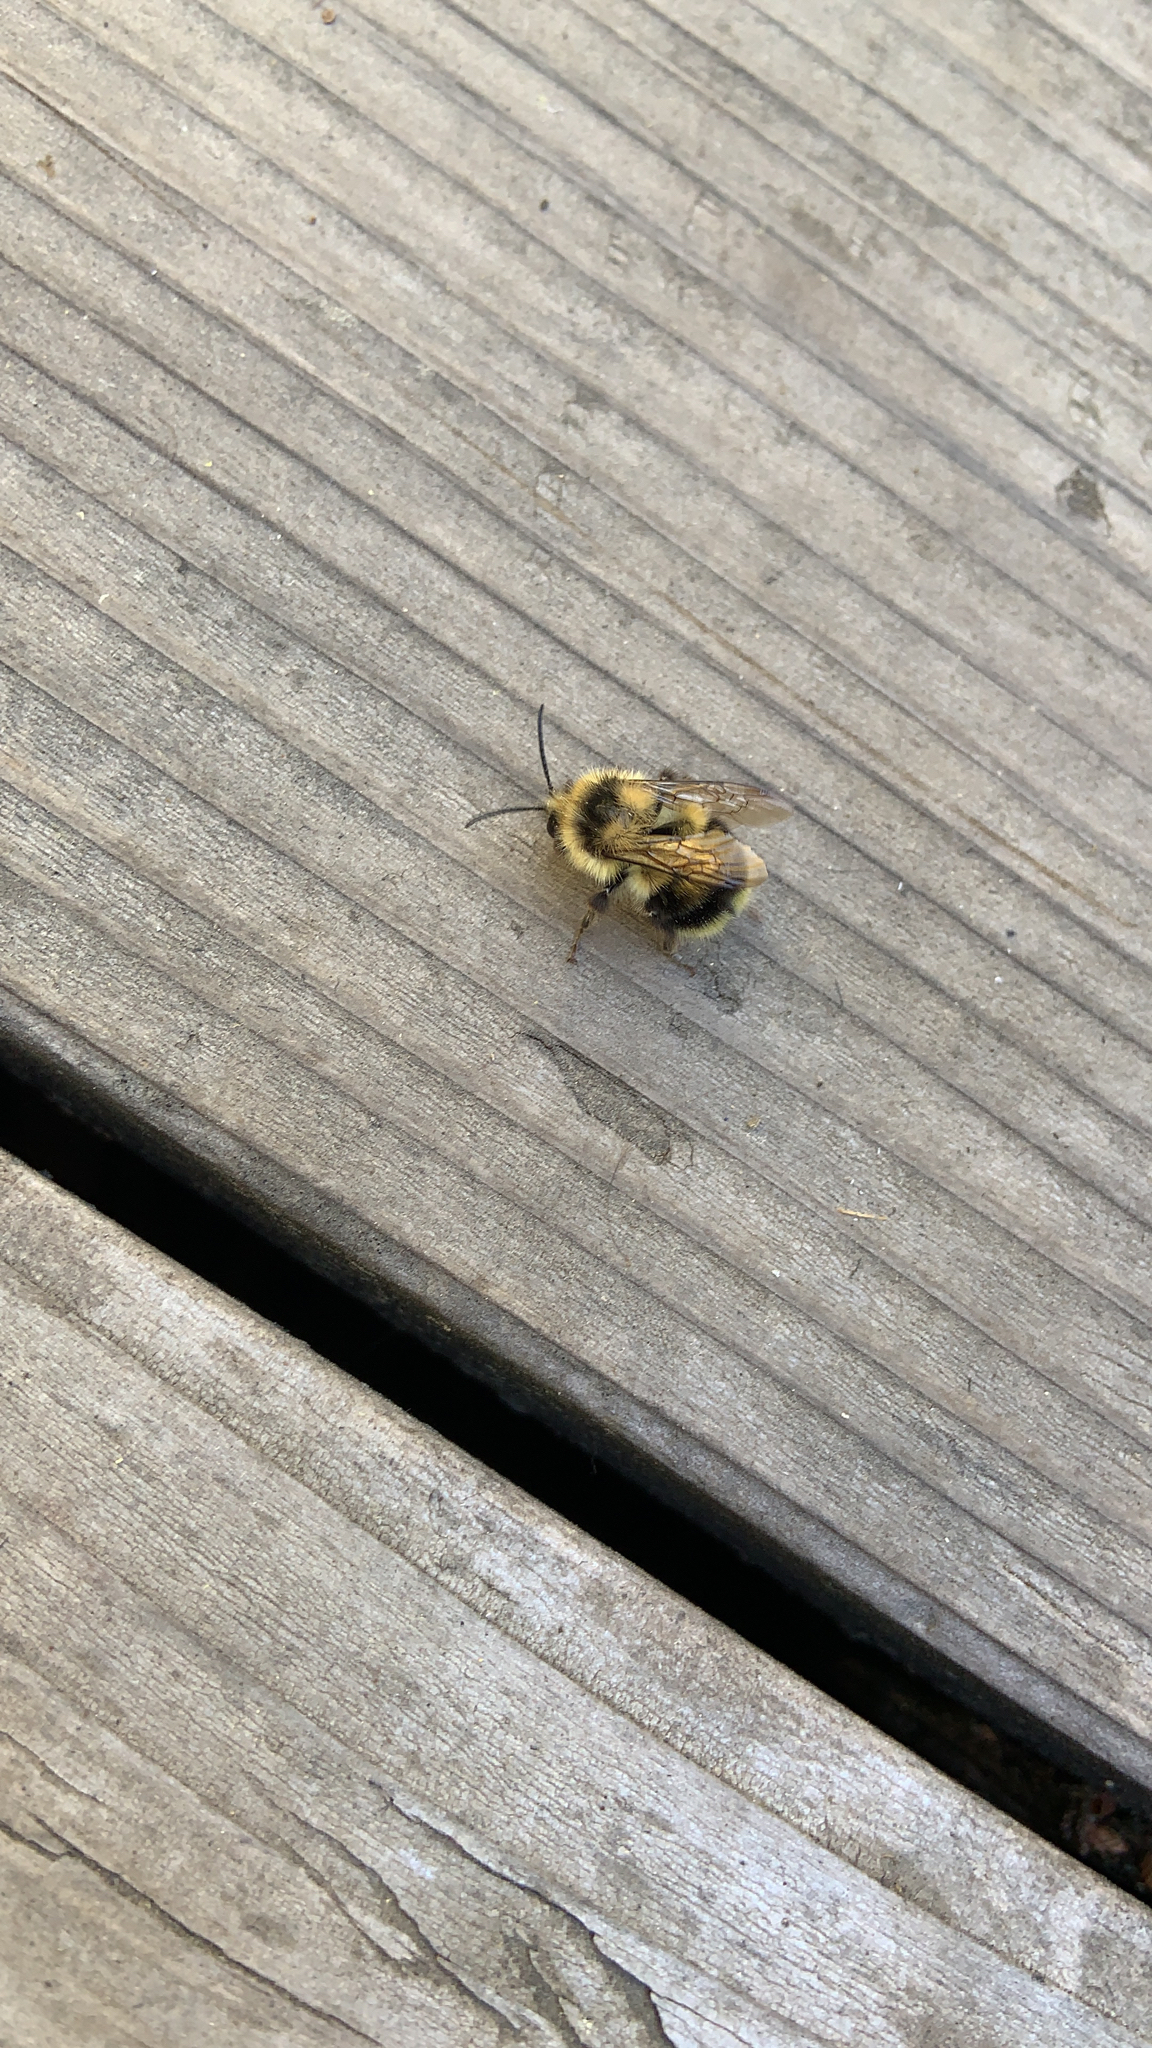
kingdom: Animalia
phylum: Arthropoda
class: Insecta
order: Hymenoptera
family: Apidae
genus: Bombus
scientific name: Bombus melanopygus
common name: Black tail bumble bee
